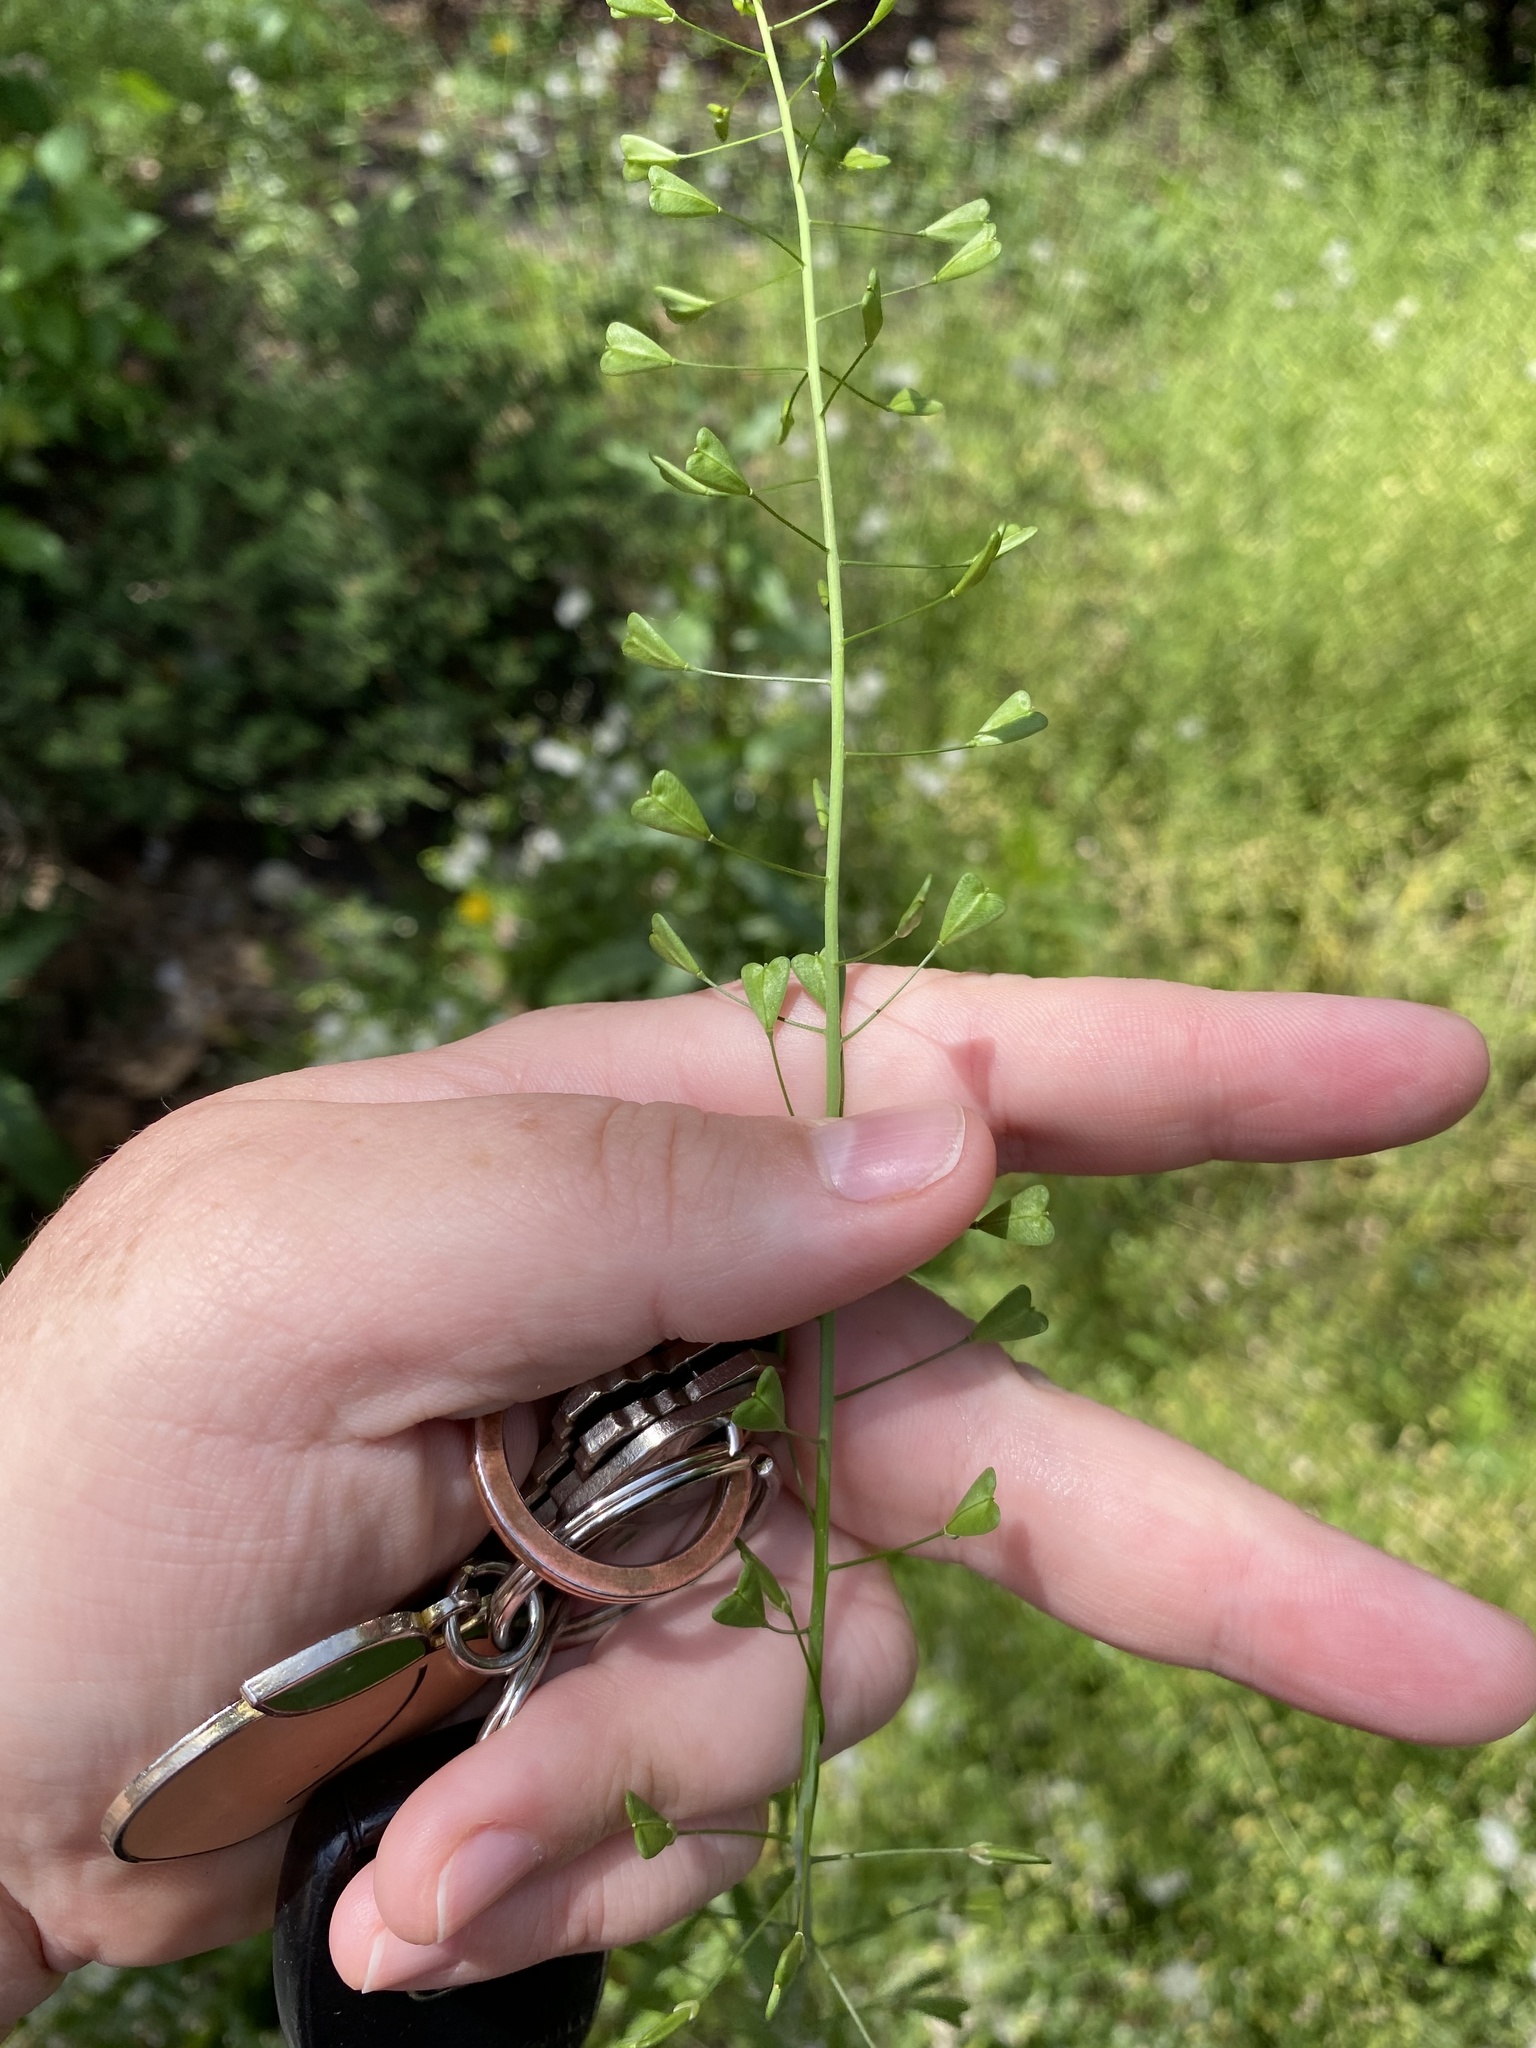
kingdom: Plantae
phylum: Tracheophyta
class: Magnoliopsida
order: Brassicales
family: Brassicaceae
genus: Capsella
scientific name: Capsella bursa-pastoris
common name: Shepherd's purse
